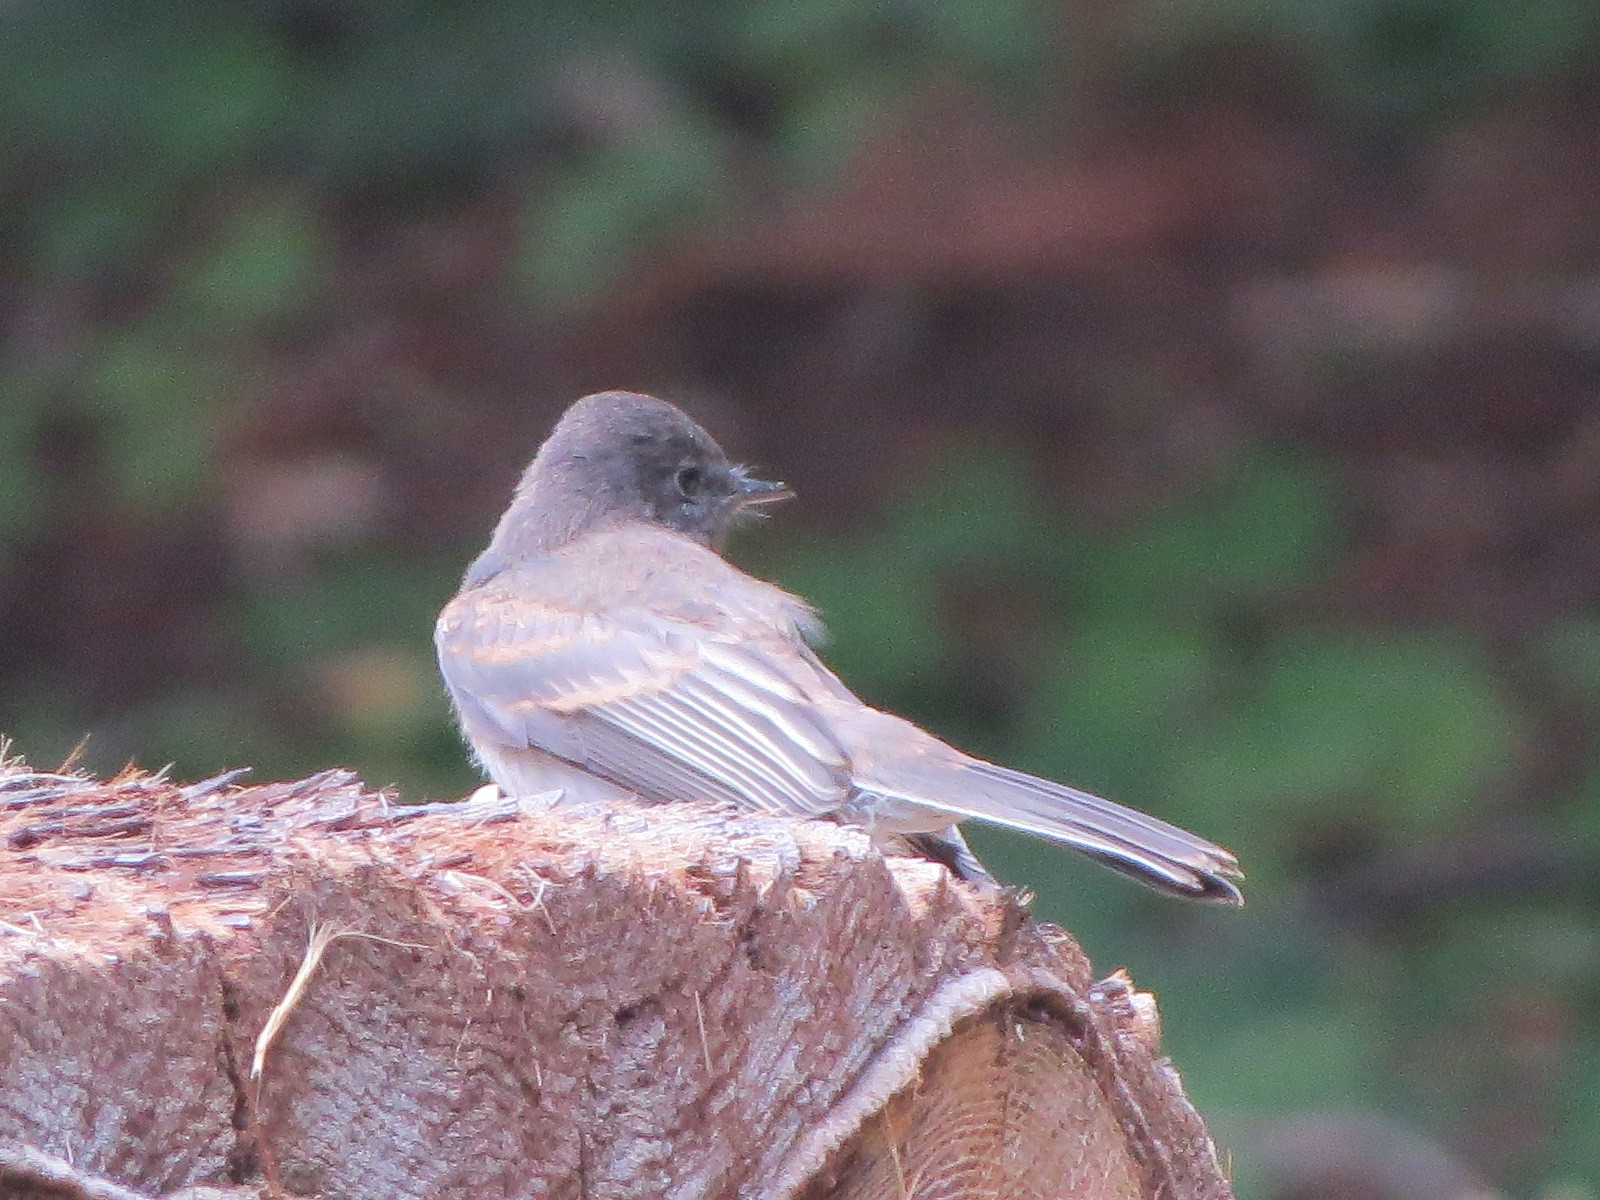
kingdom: Animalia
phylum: Chordata
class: Aves
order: Passeriformes
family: Tyrannidae
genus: Sayornis
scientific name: Sayornis nigricans
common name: Black phoebe
